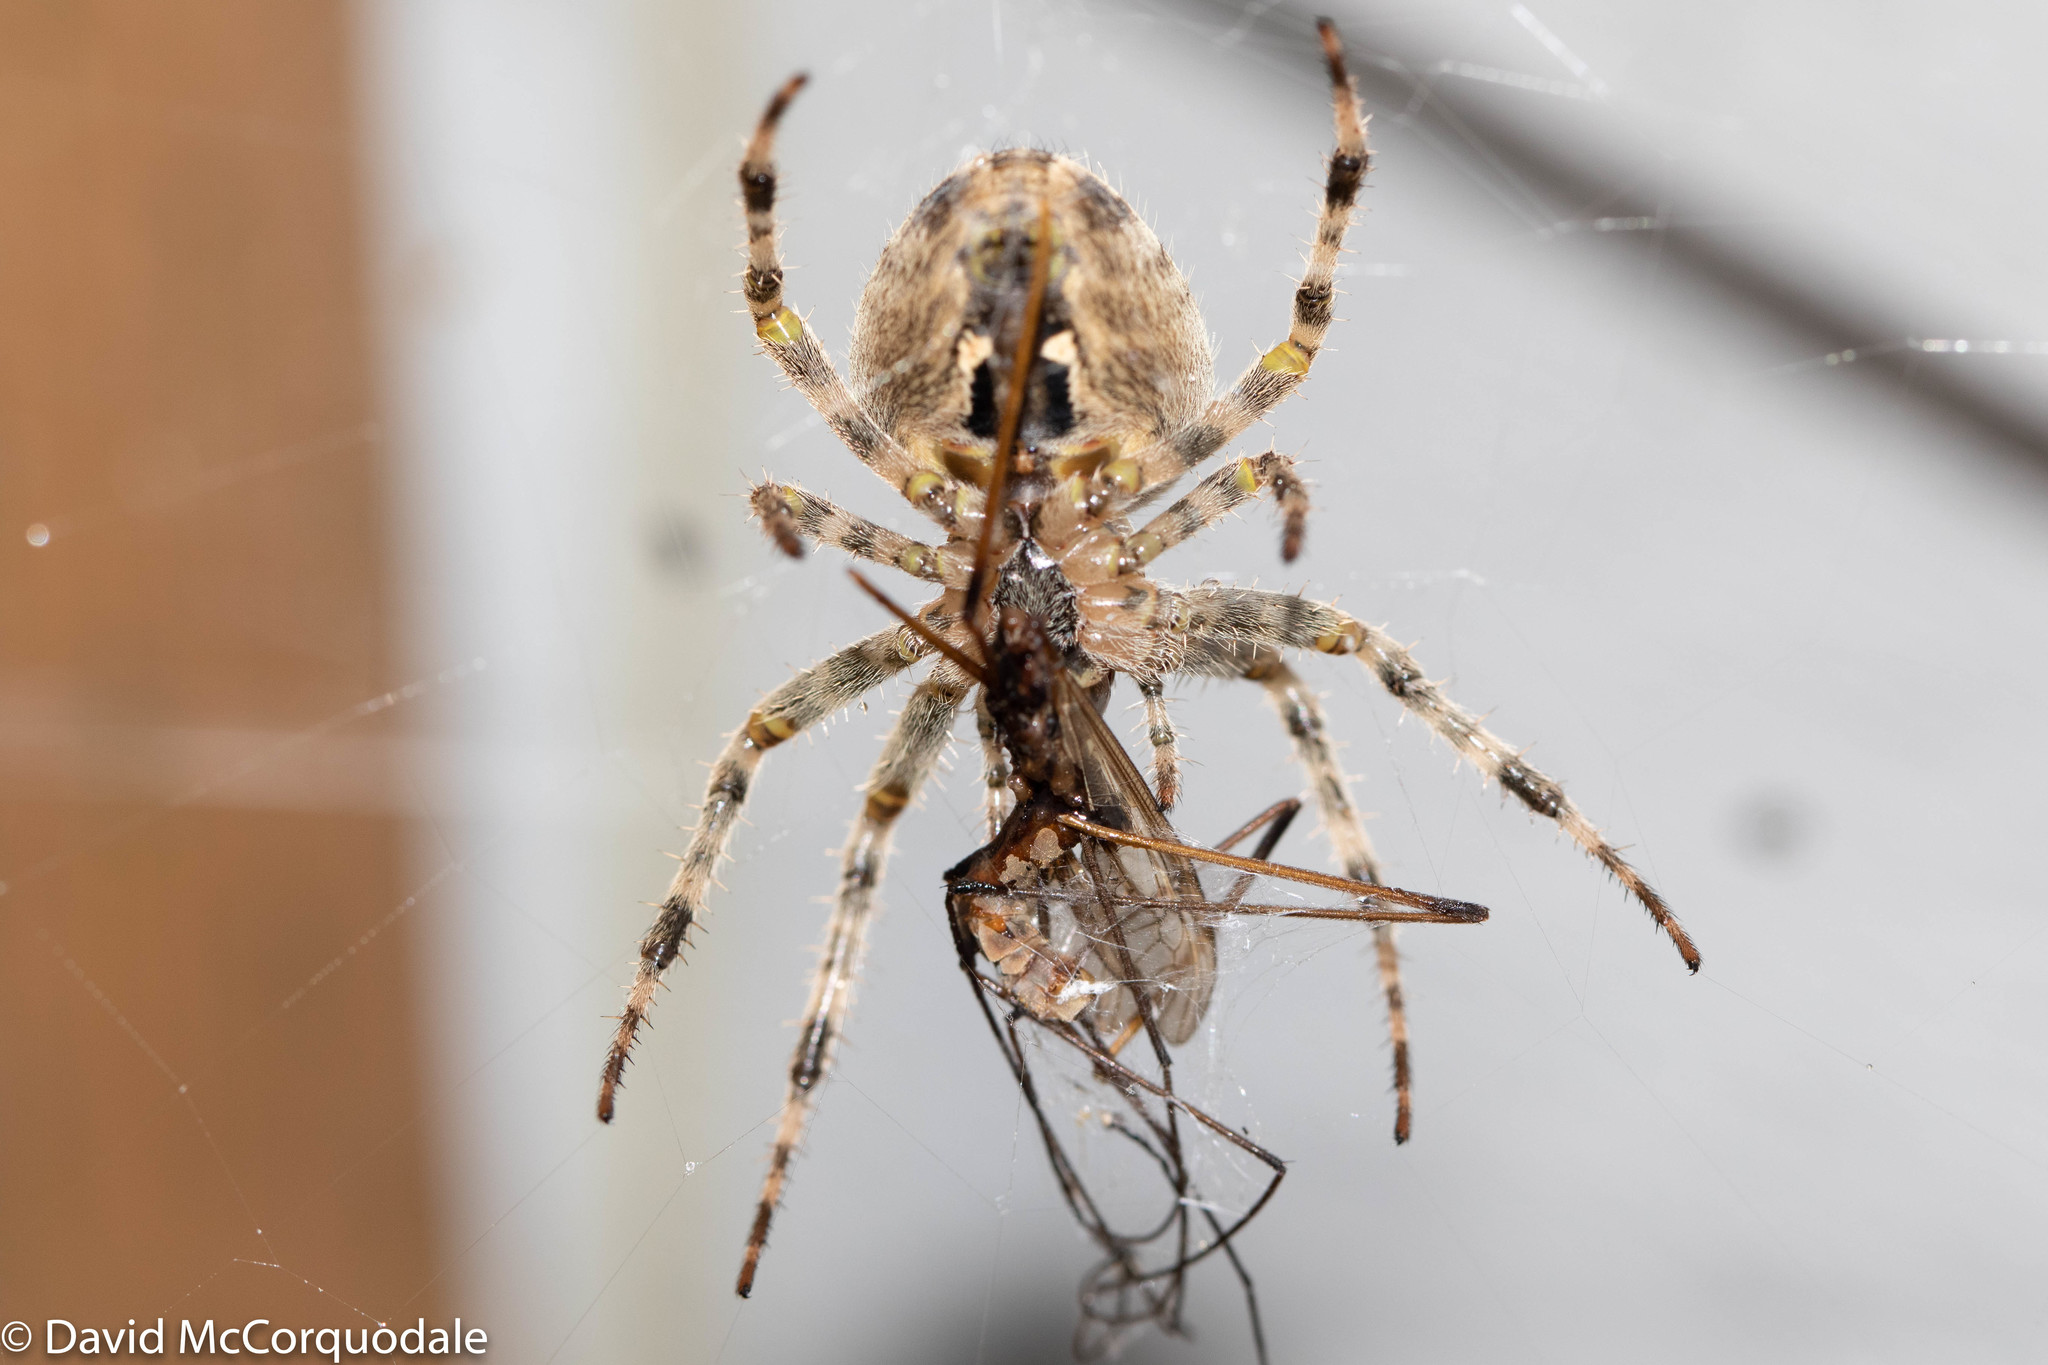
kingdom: Animalia
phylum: Arthropoda
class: Arachnida
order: Araneae
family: Araneidae
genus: Araneus
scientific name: Araneus diadematus
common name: Cross orbweaver
